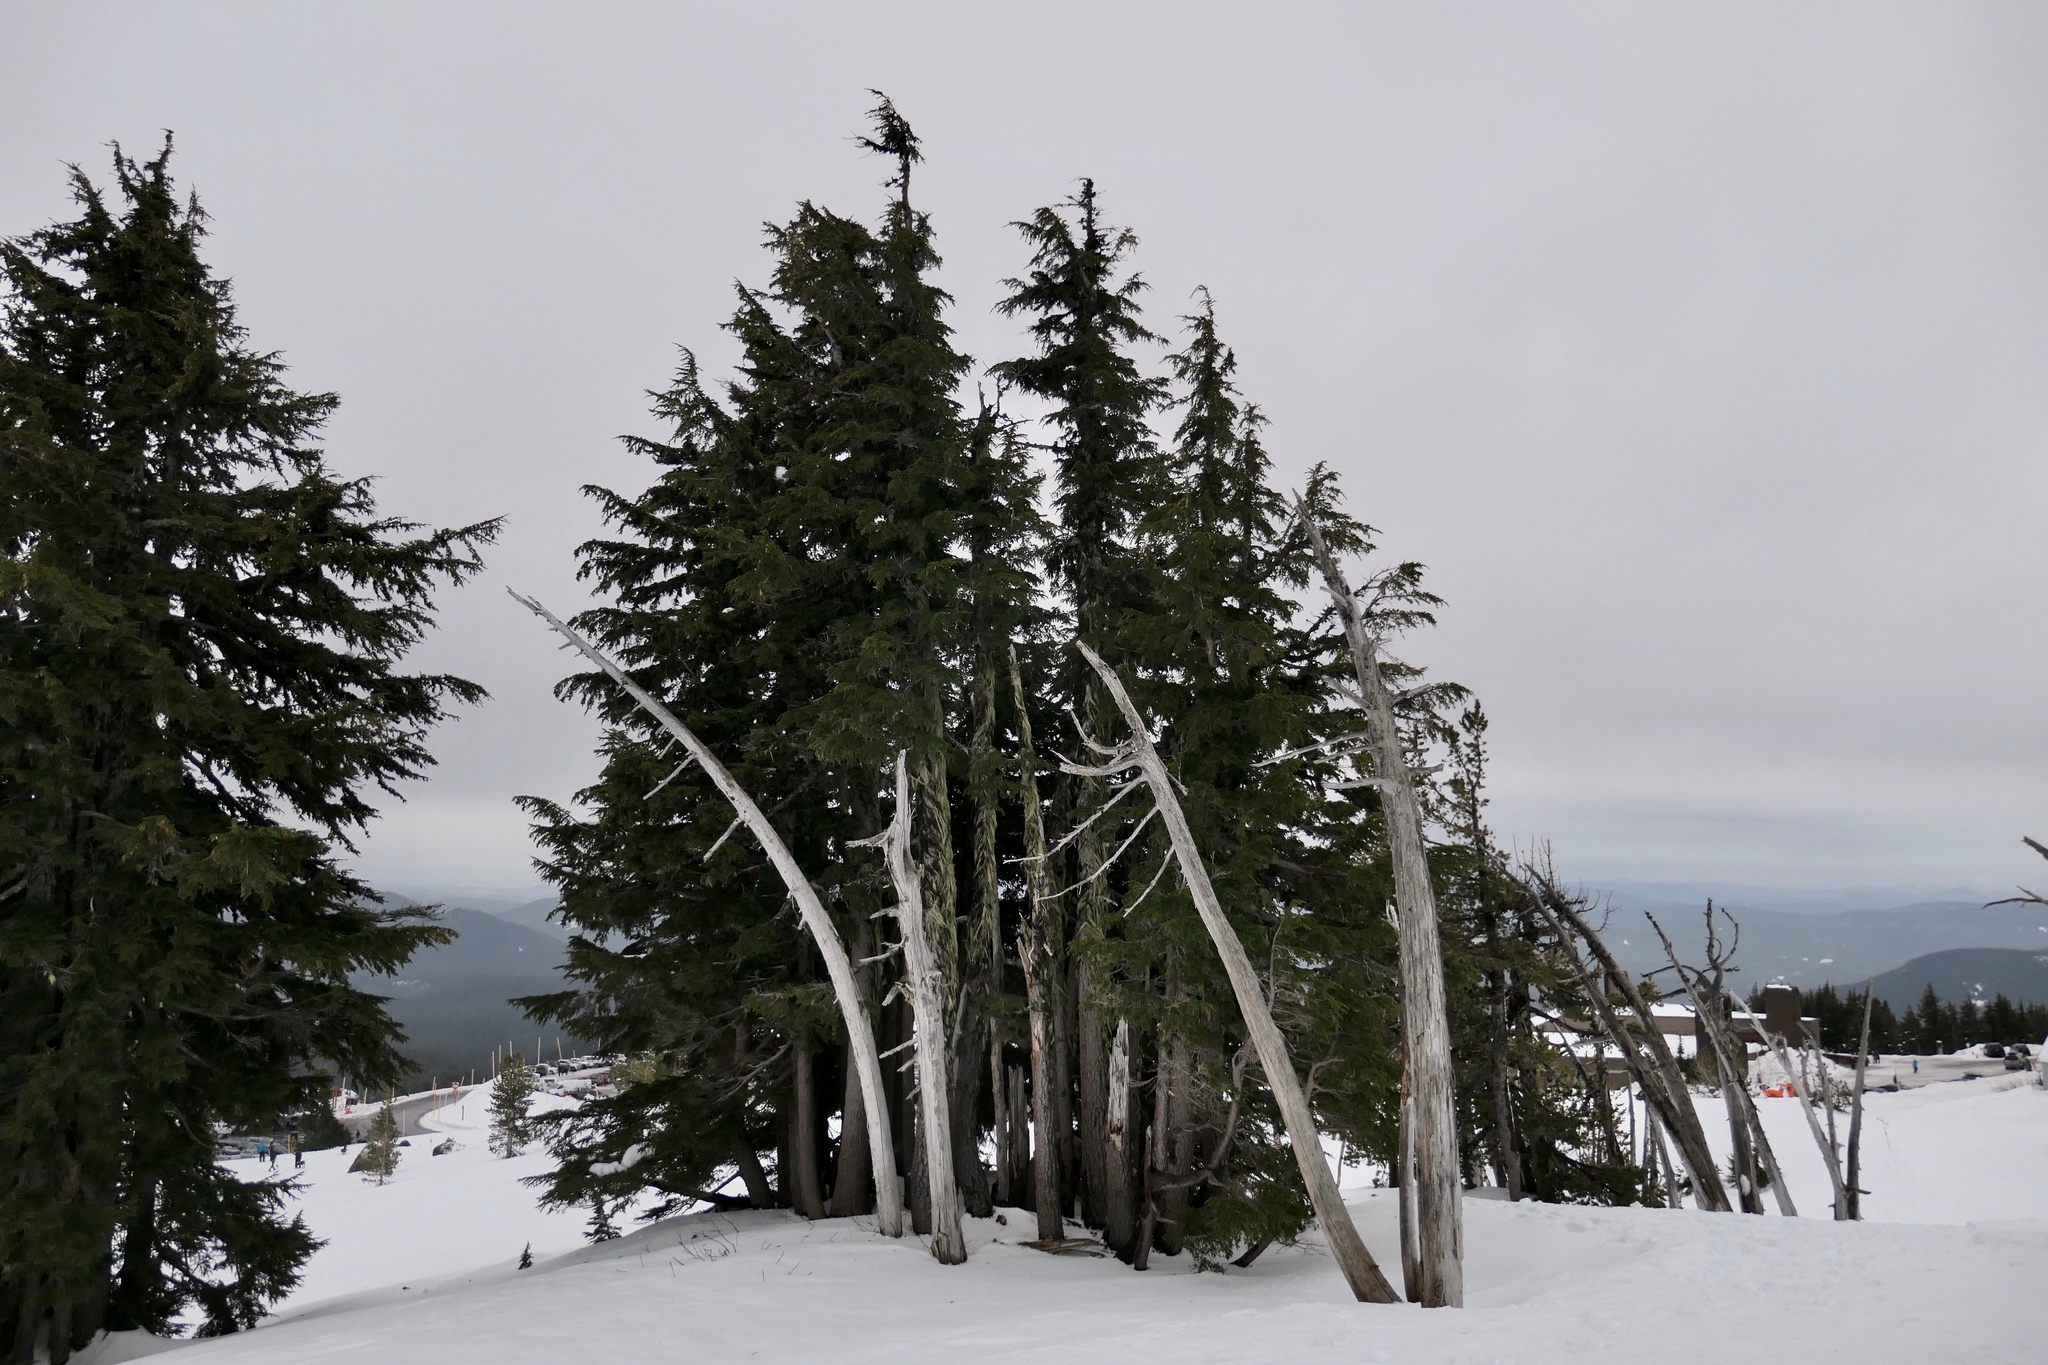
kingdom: Plantae
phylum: Tracheophyta
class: Pinopsida
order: Pinales
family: Pinaceae
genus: Tsuga
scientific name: Tsuga mertensiana
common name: Mountain hemlock
